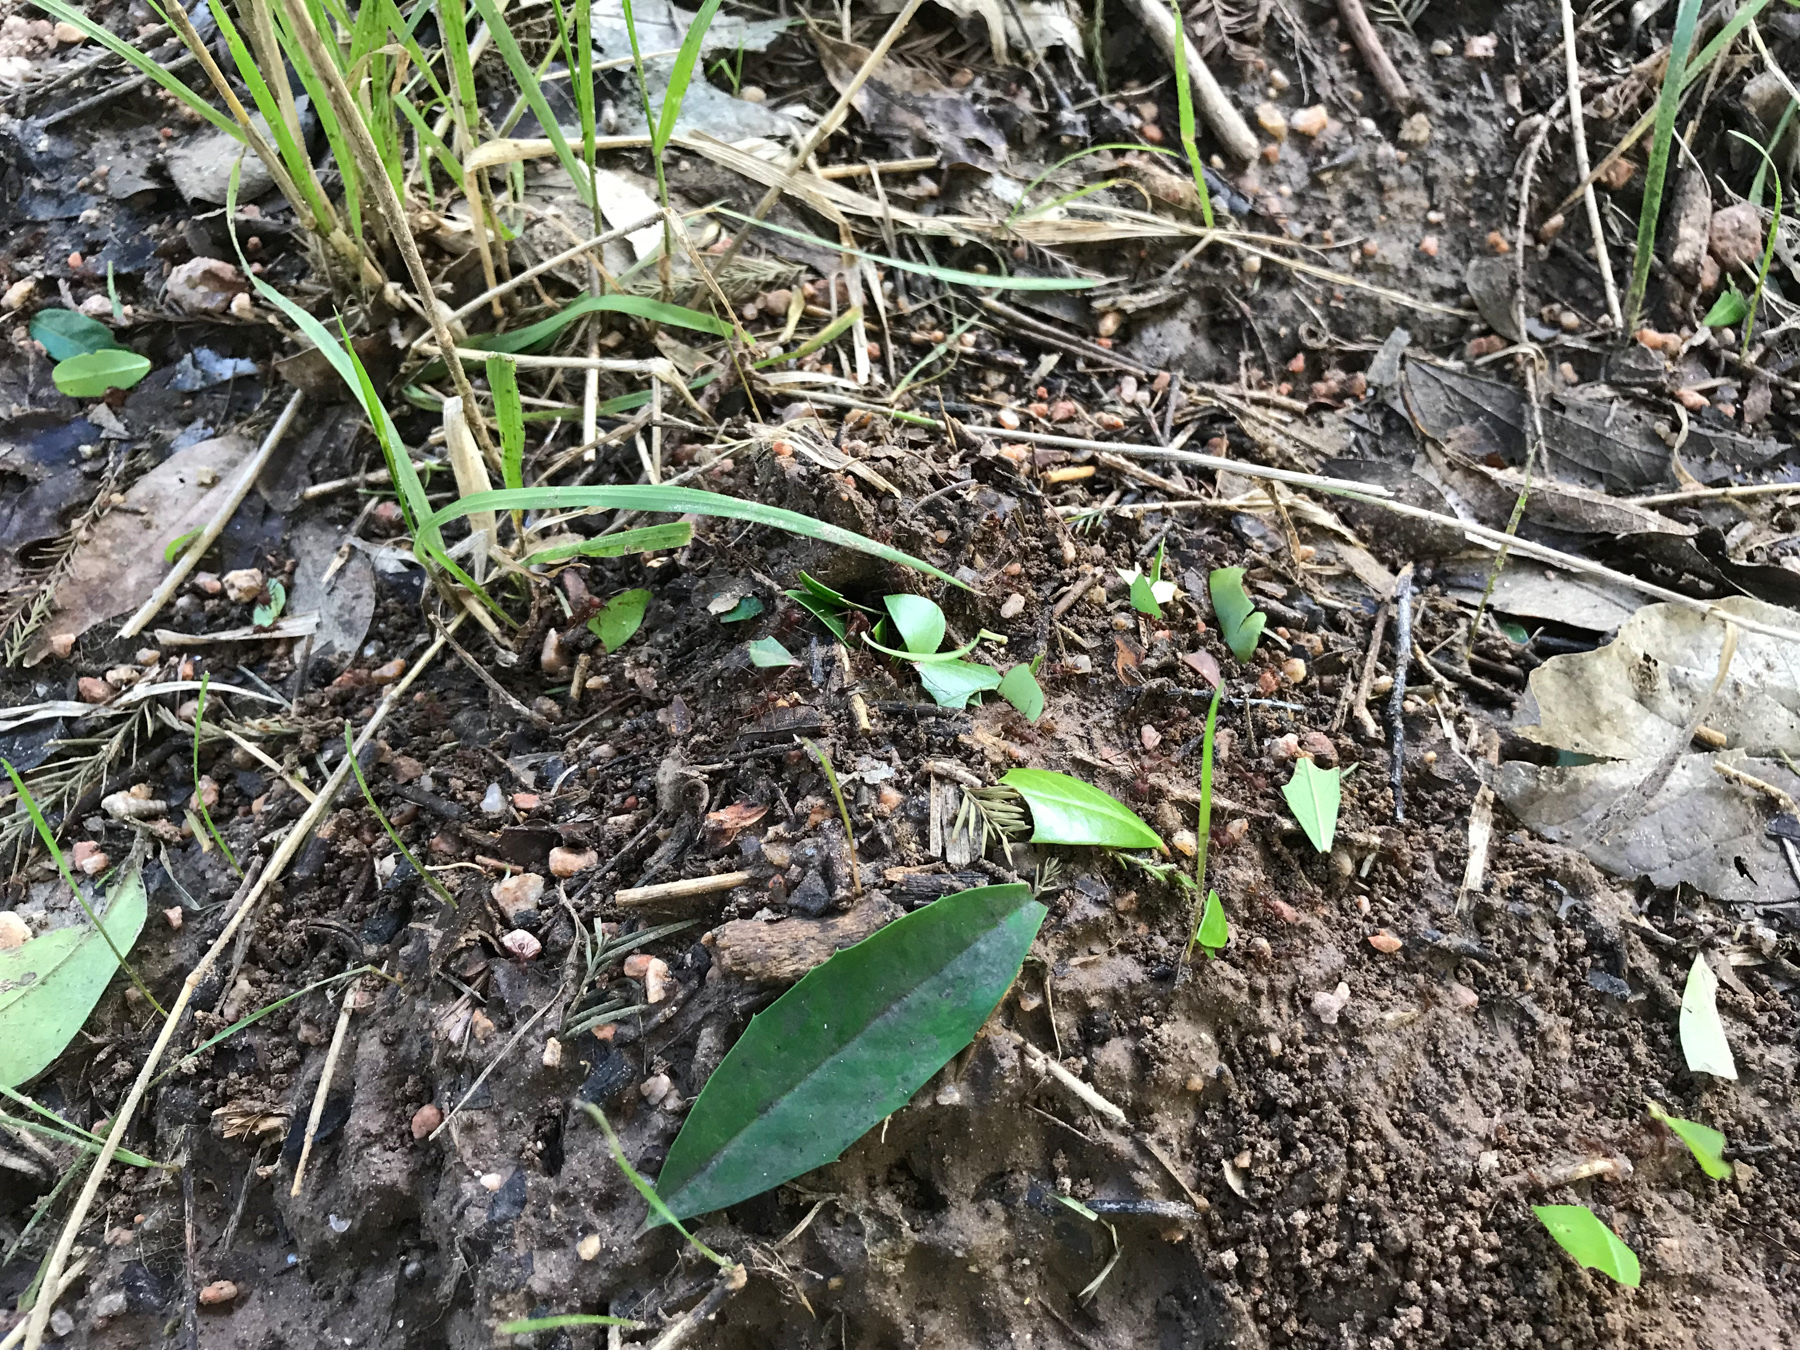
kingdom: Animalia
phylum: Arthropoda
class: Insecta
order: Hymenoptera
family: Formicidae
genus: Atta
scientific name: Atta texana
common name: Texas leafcutting ant
